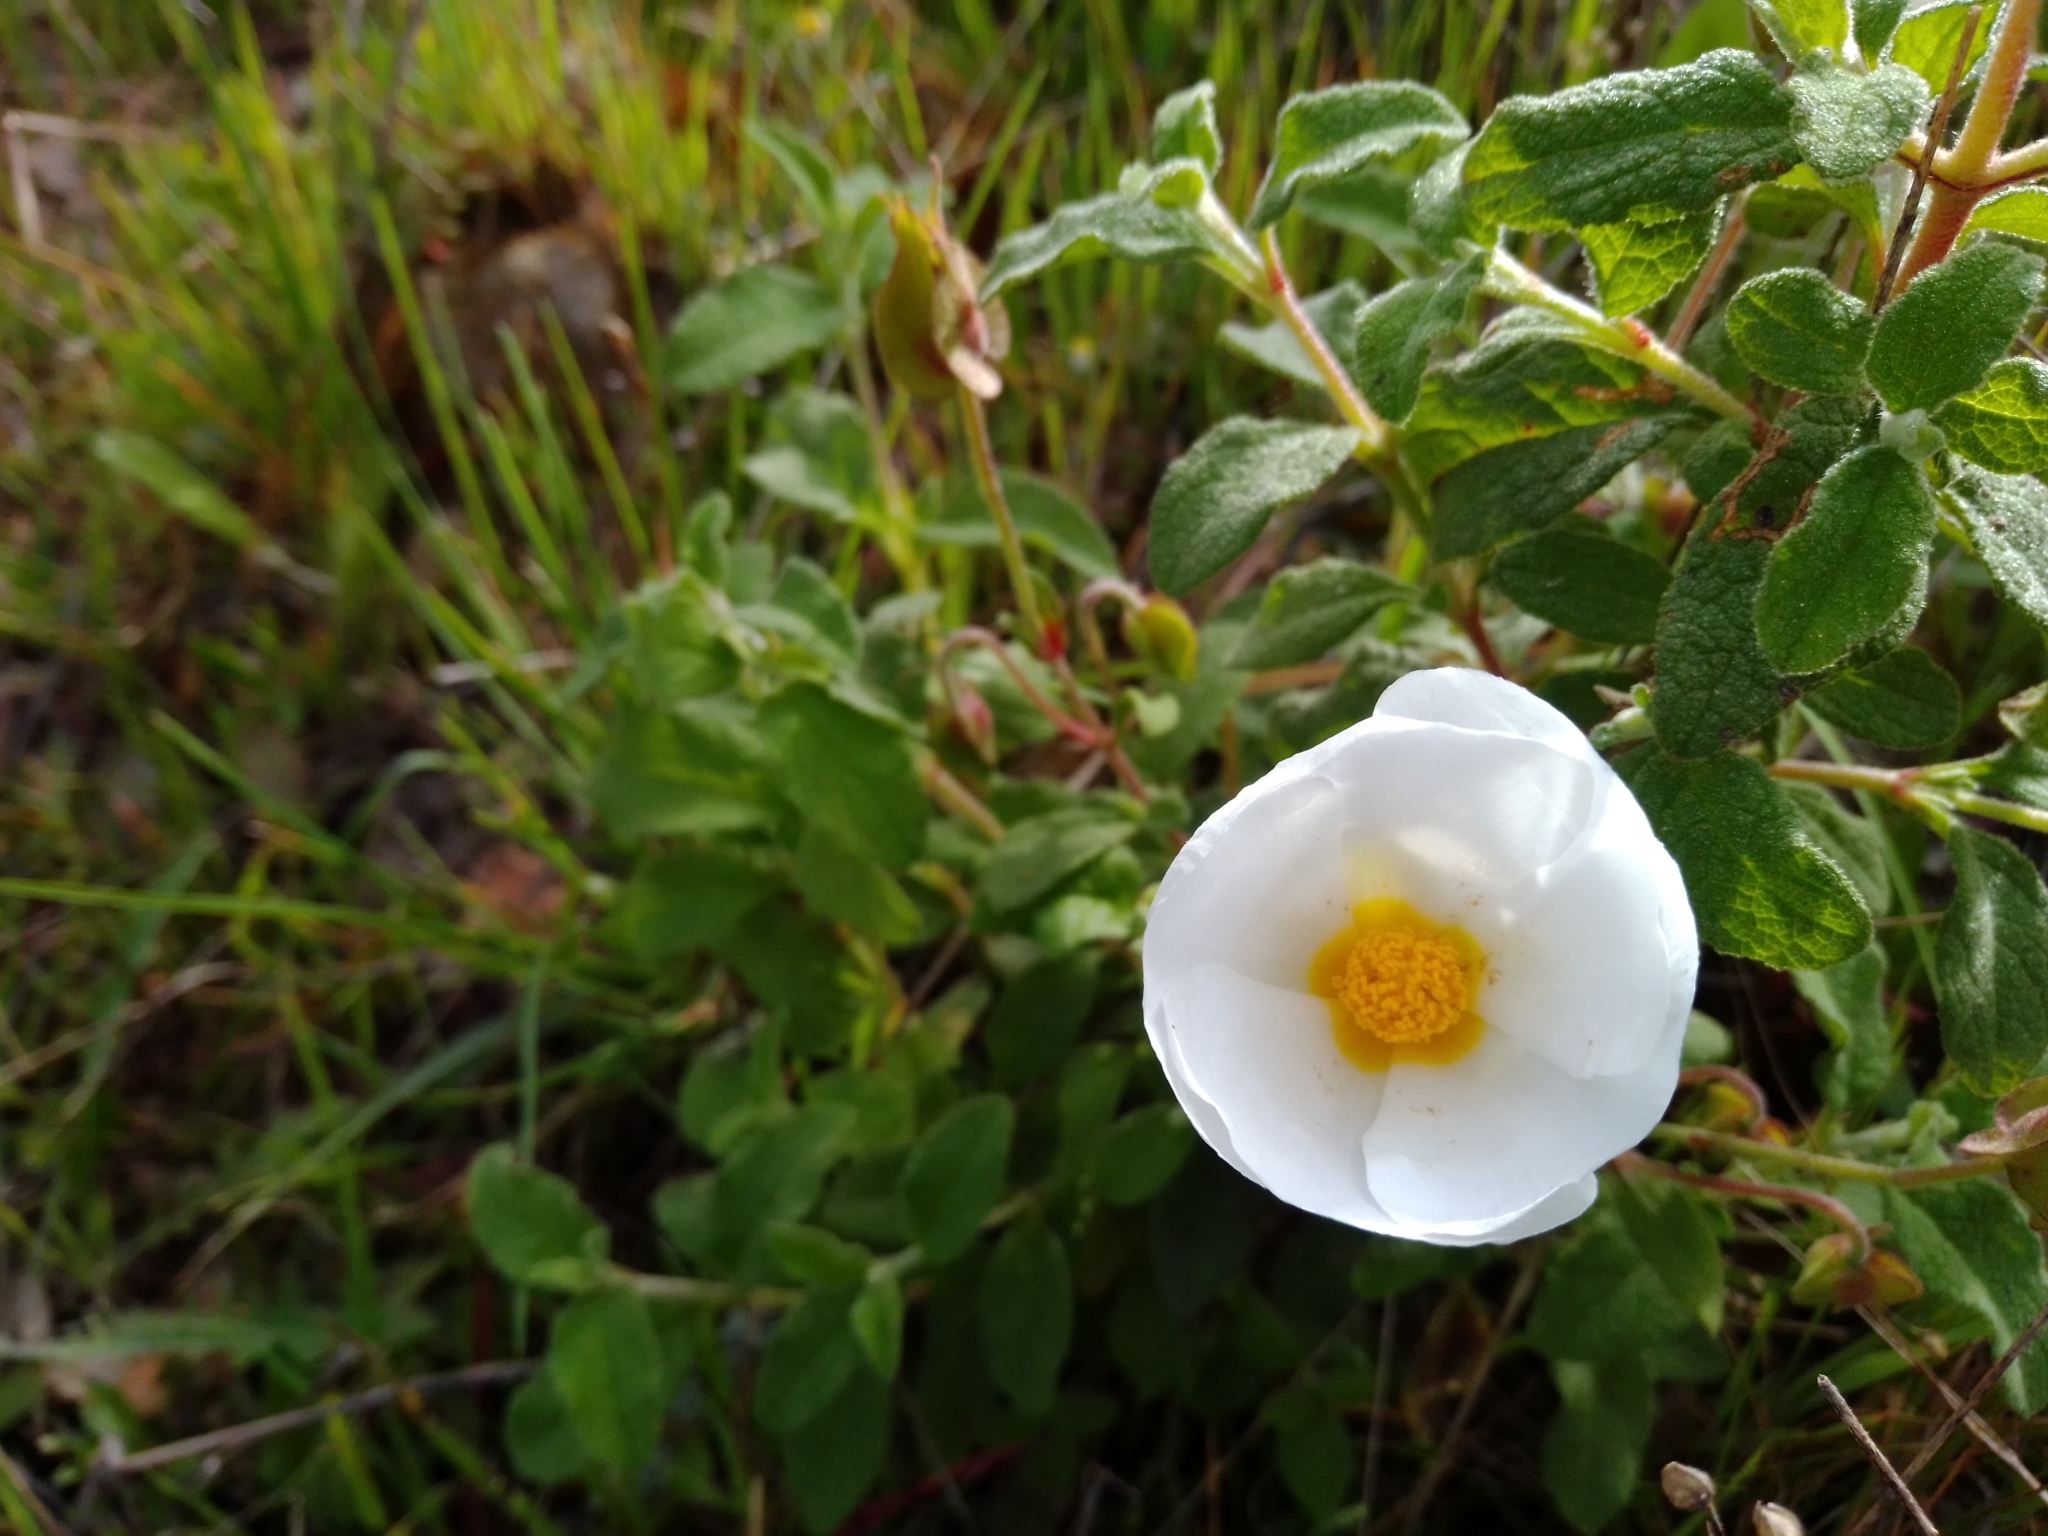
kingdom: Plantae
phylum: Tracheophyta
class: Magnoliopsida
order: Malvales
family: Cistaceae
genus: Cistus
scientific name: Cistus salviifolius
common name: Salvia cistus
